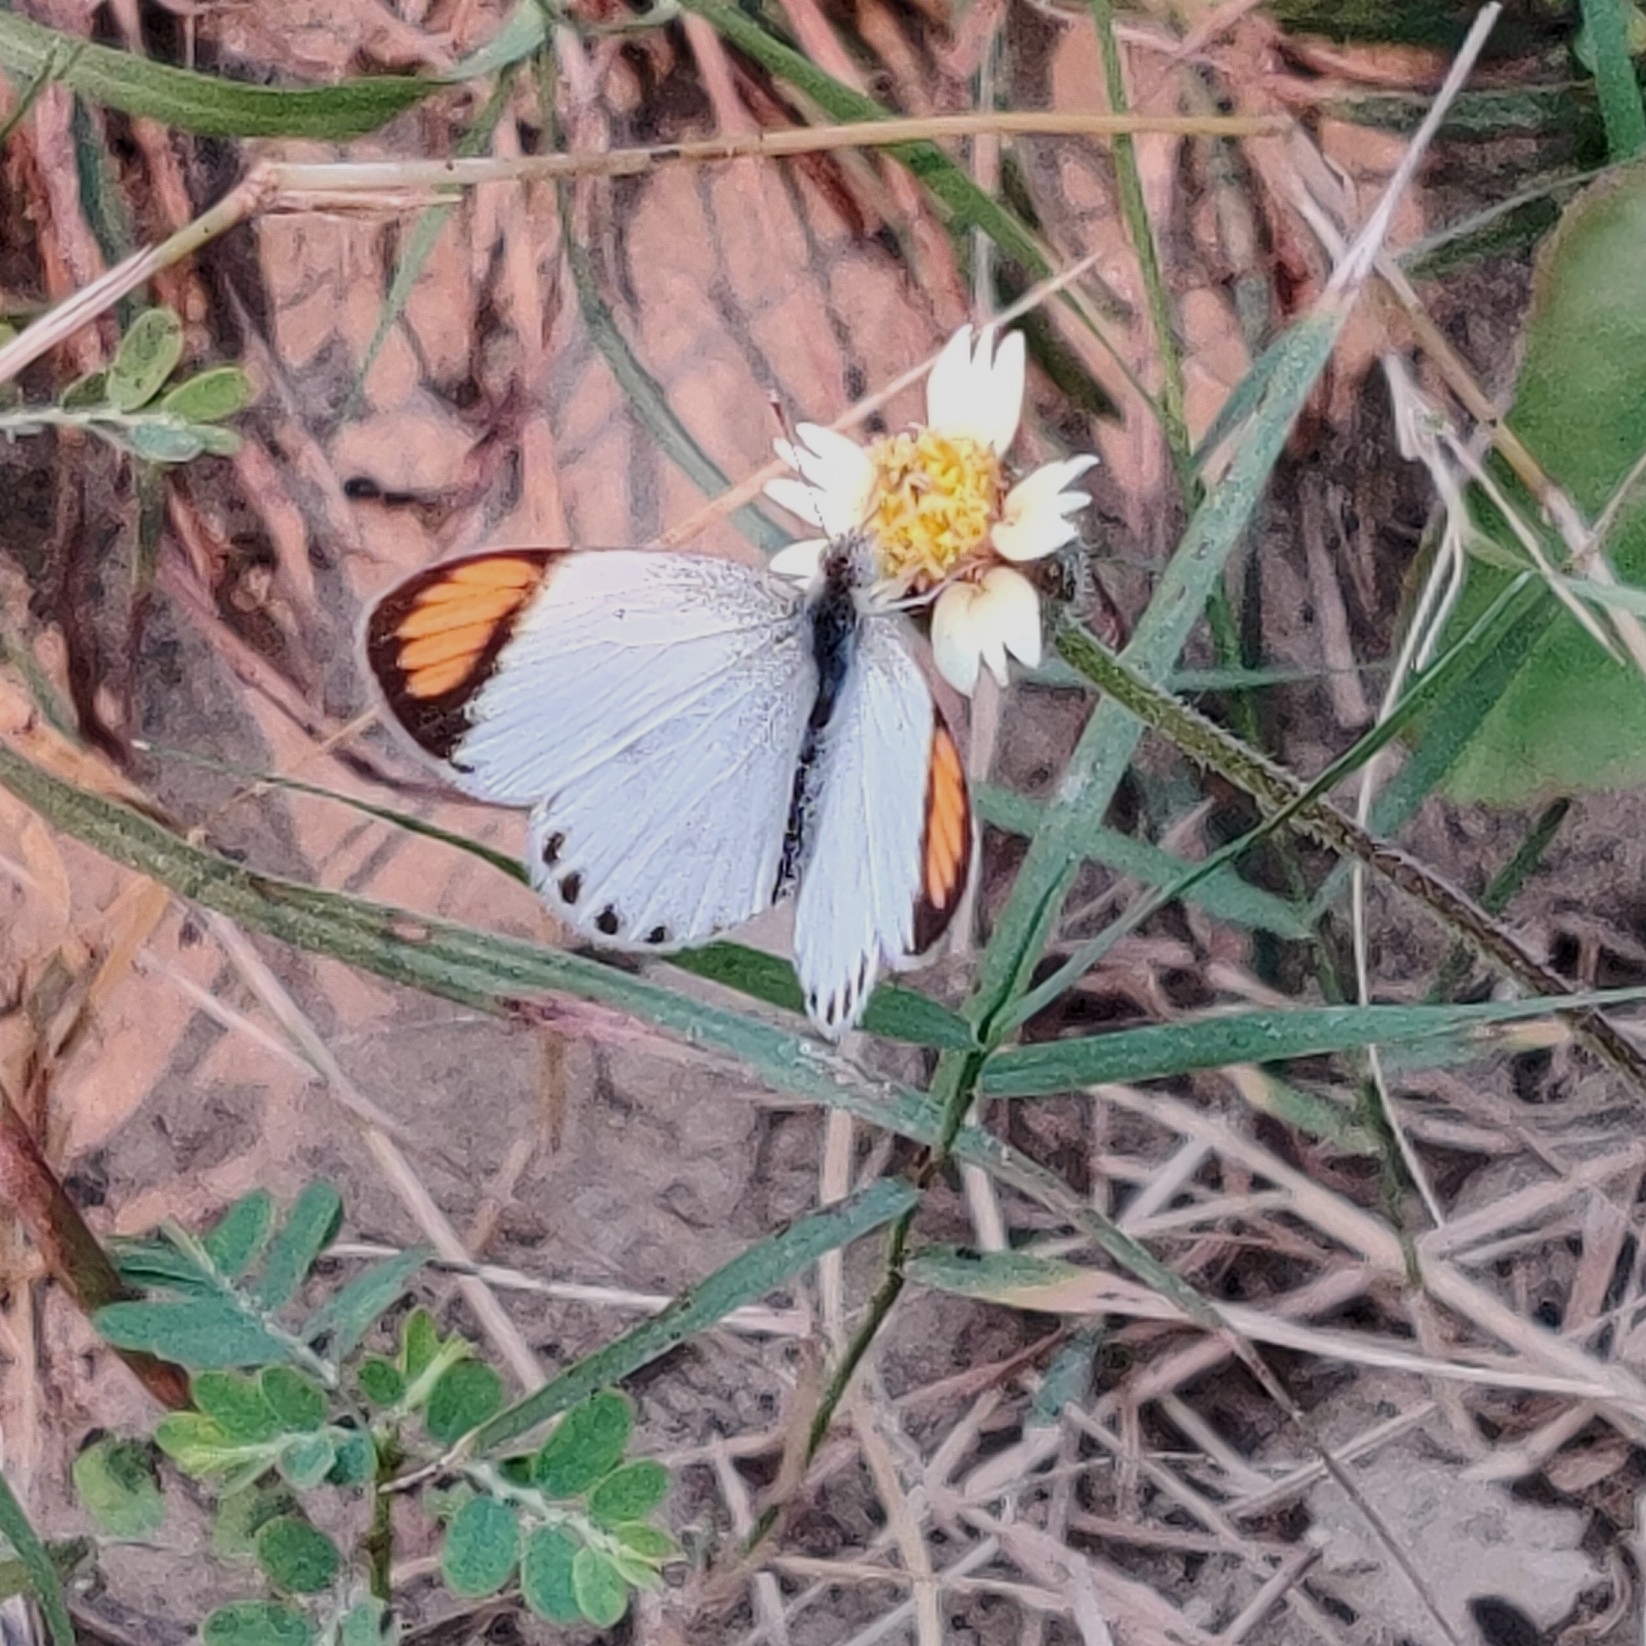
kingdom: Animalia
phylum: Arthropoda
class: Insecta
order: Lepidoptera
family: Pieridae
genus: Colotis
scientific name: Colotis etrida
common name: Little orange tip
